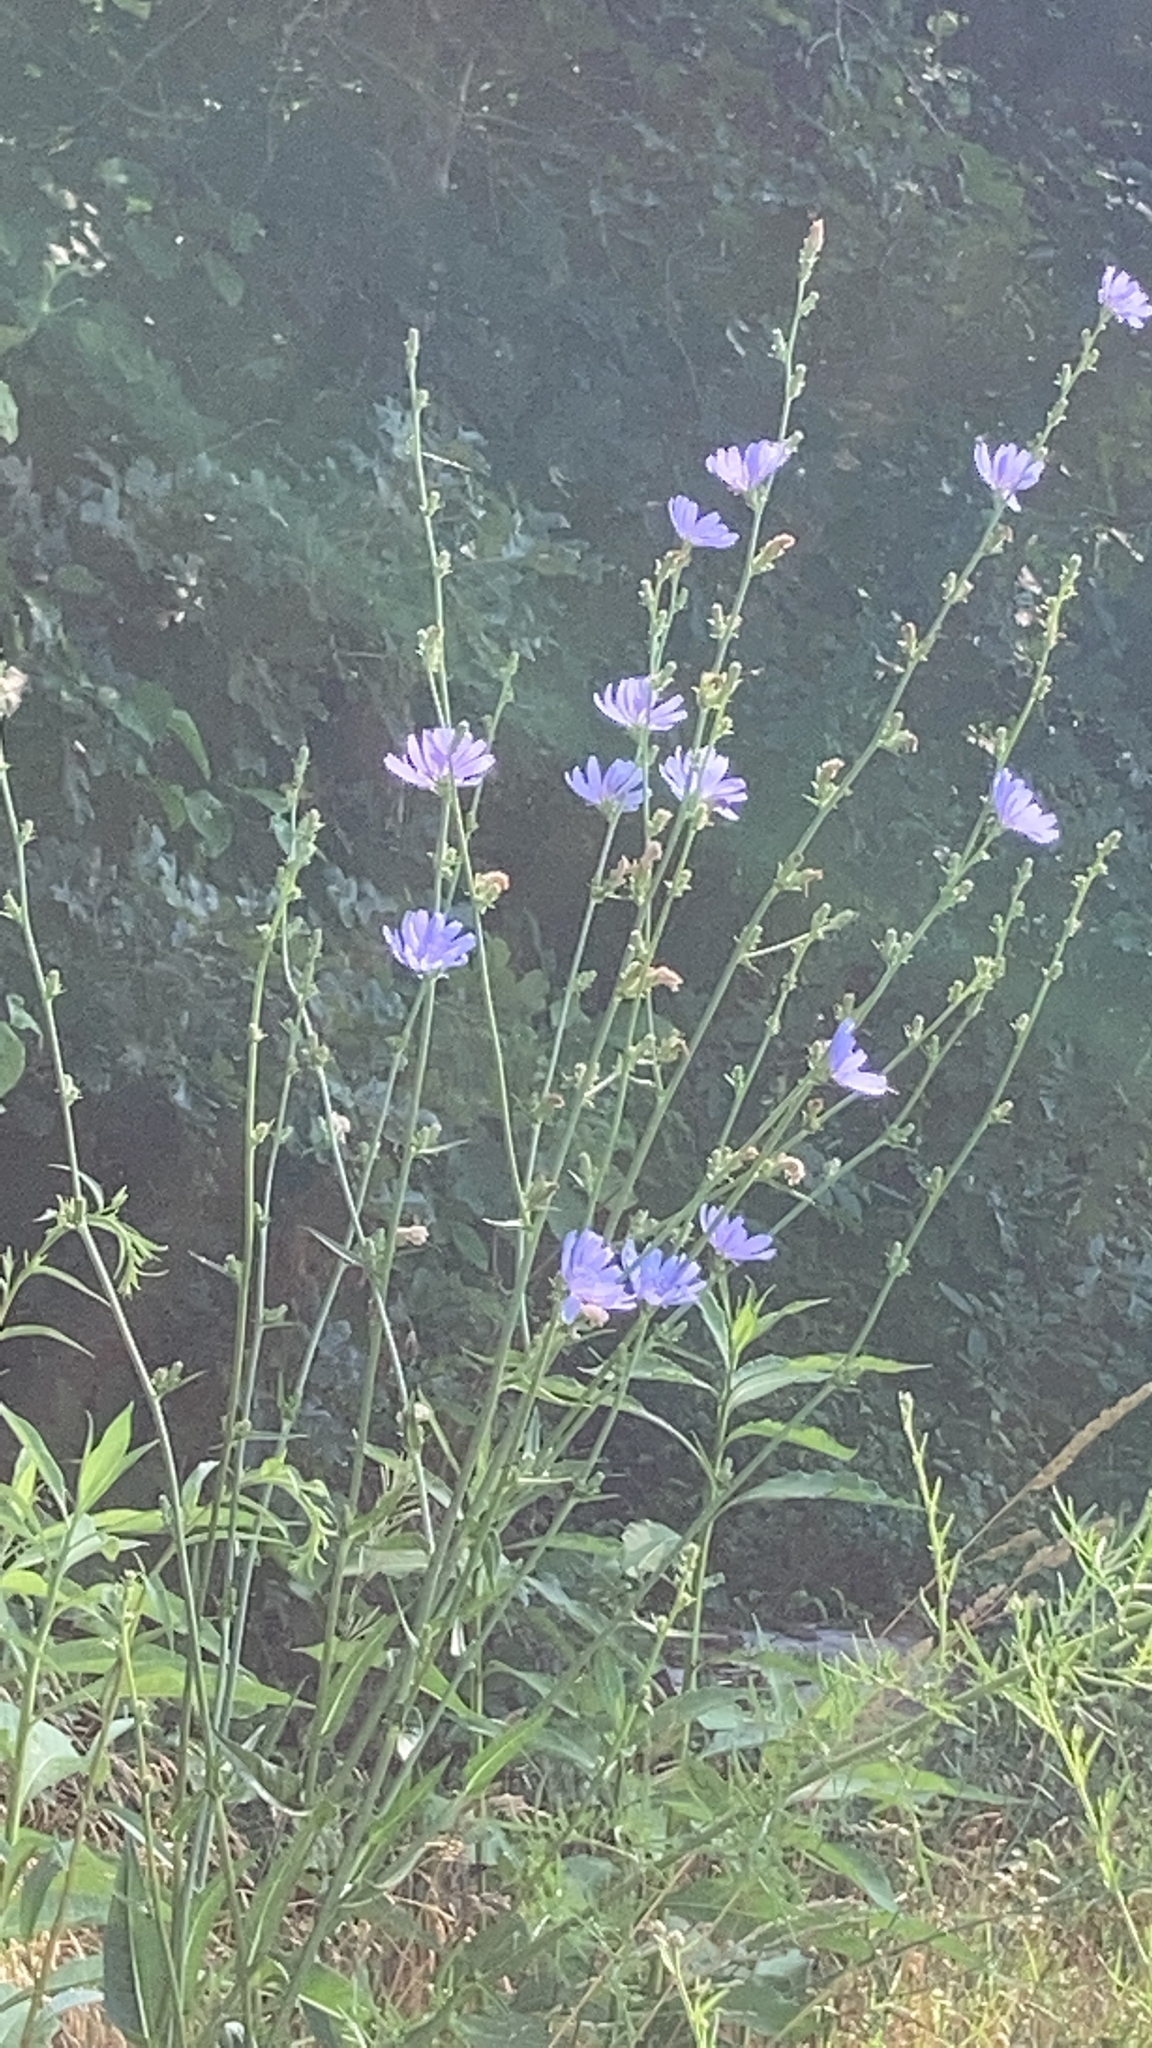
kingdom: Plantae
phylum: Tracheophyta
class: Magnoliopsida
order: Asterales
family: Asteraceae
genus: Cichorium
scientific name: Cichorium intybus
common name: Chicory
